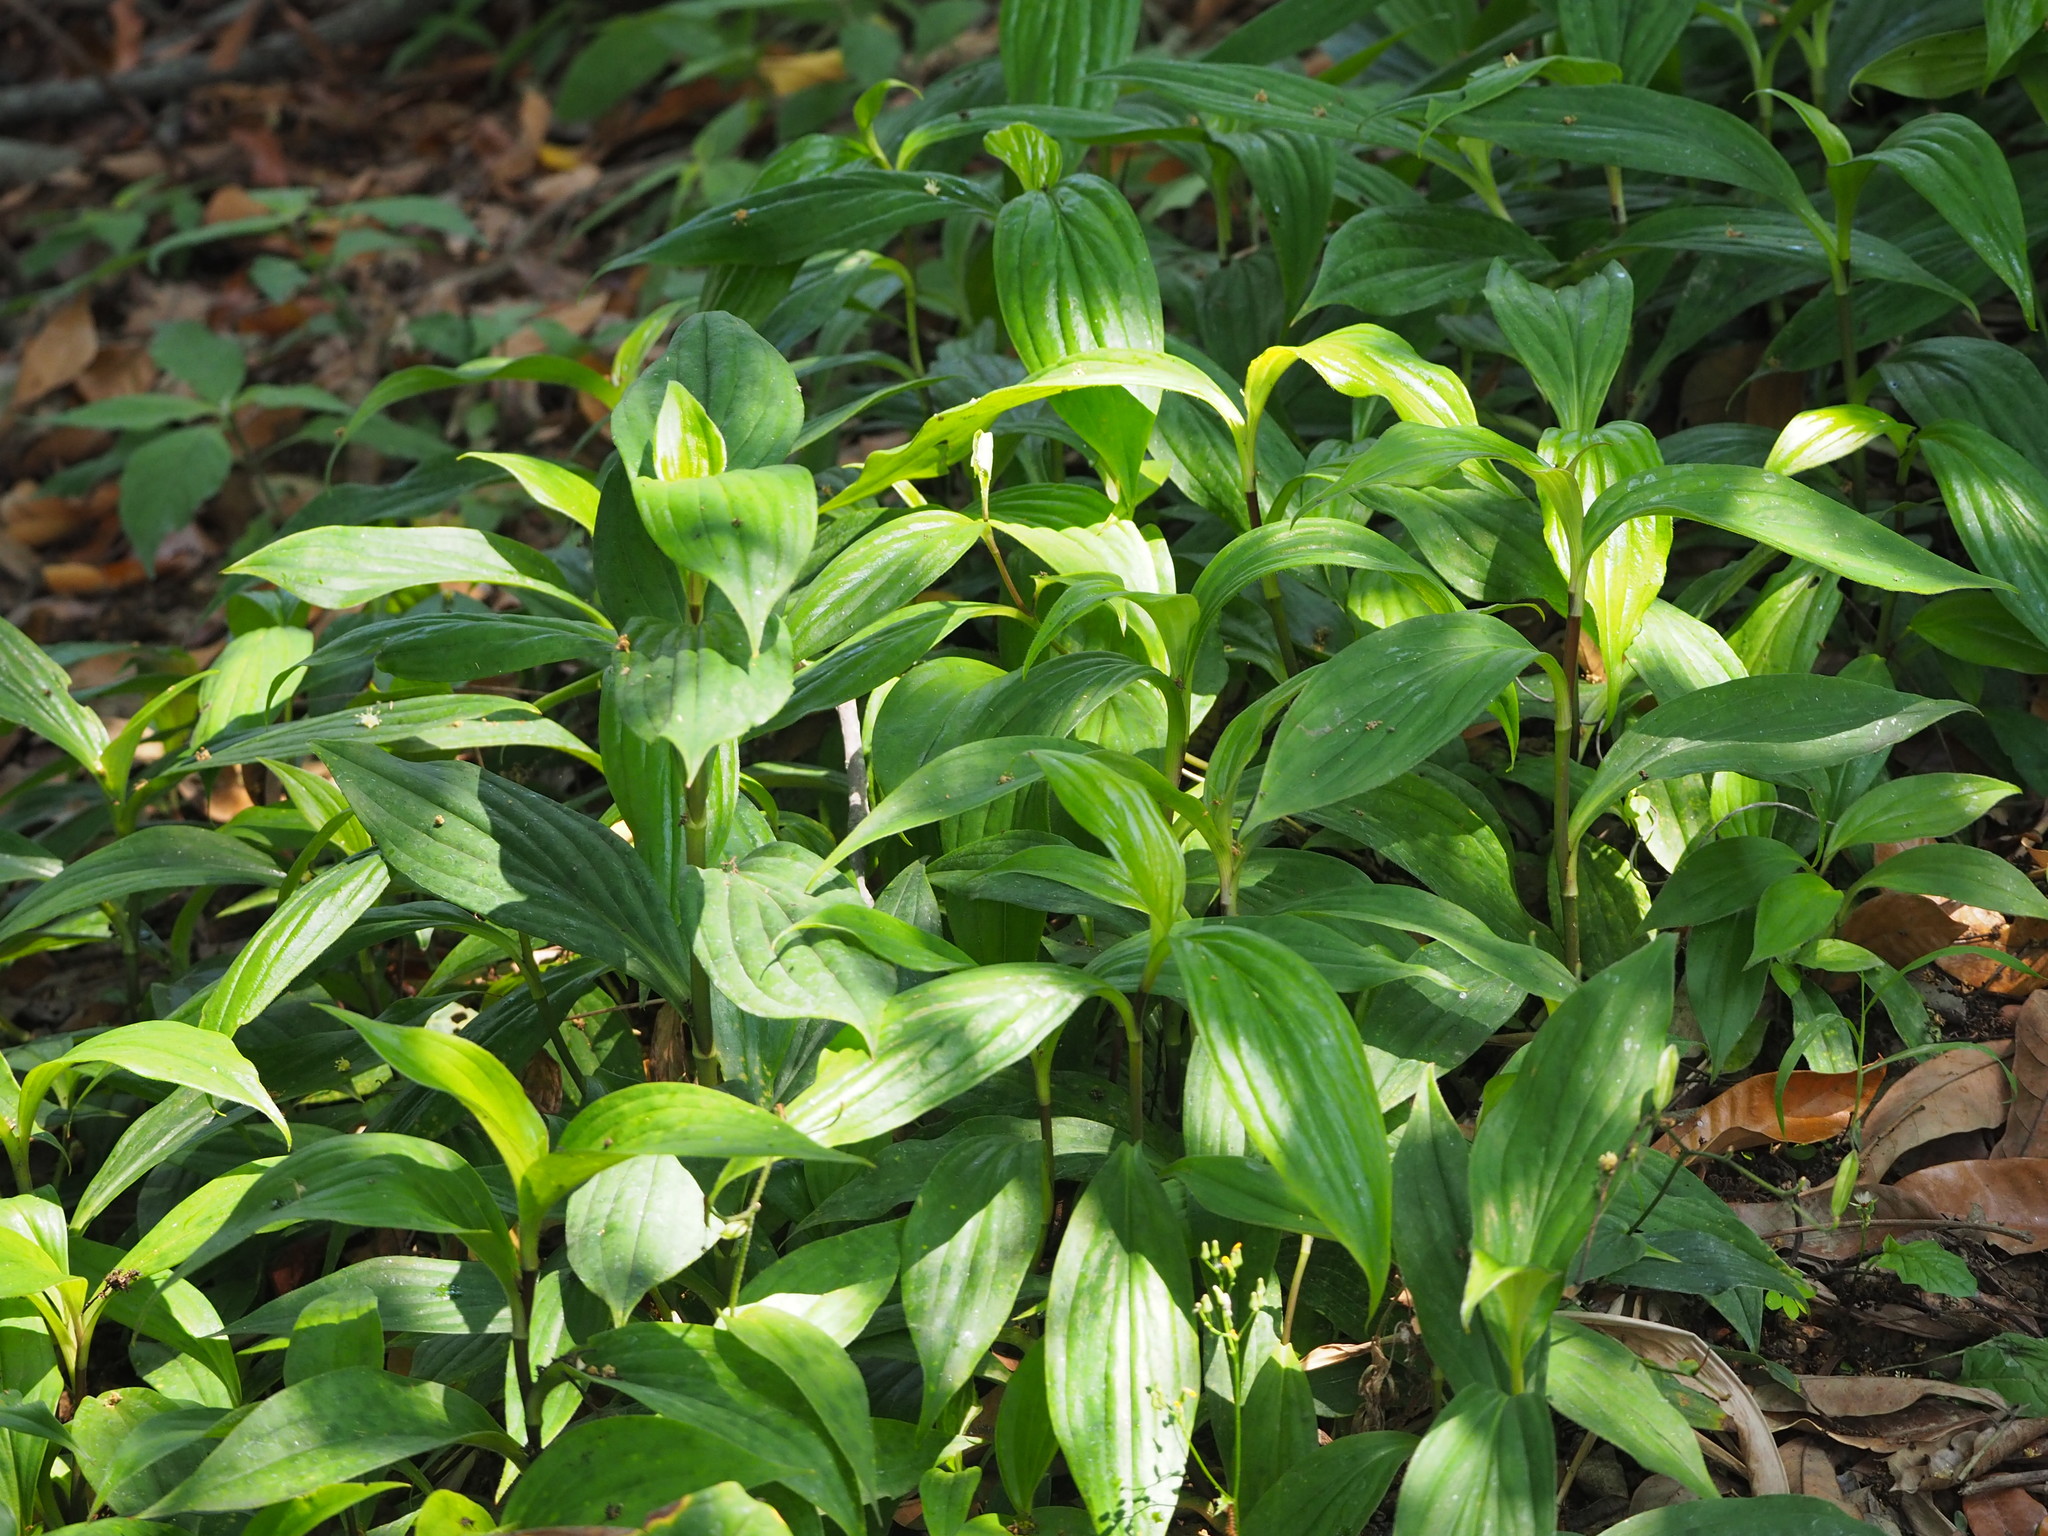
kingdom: Plantae
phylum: Tracheophyta
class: Liliopsida
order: Liliales
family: Liliaceae
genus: Tricyrtis
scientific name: Tricyrtis formosana
